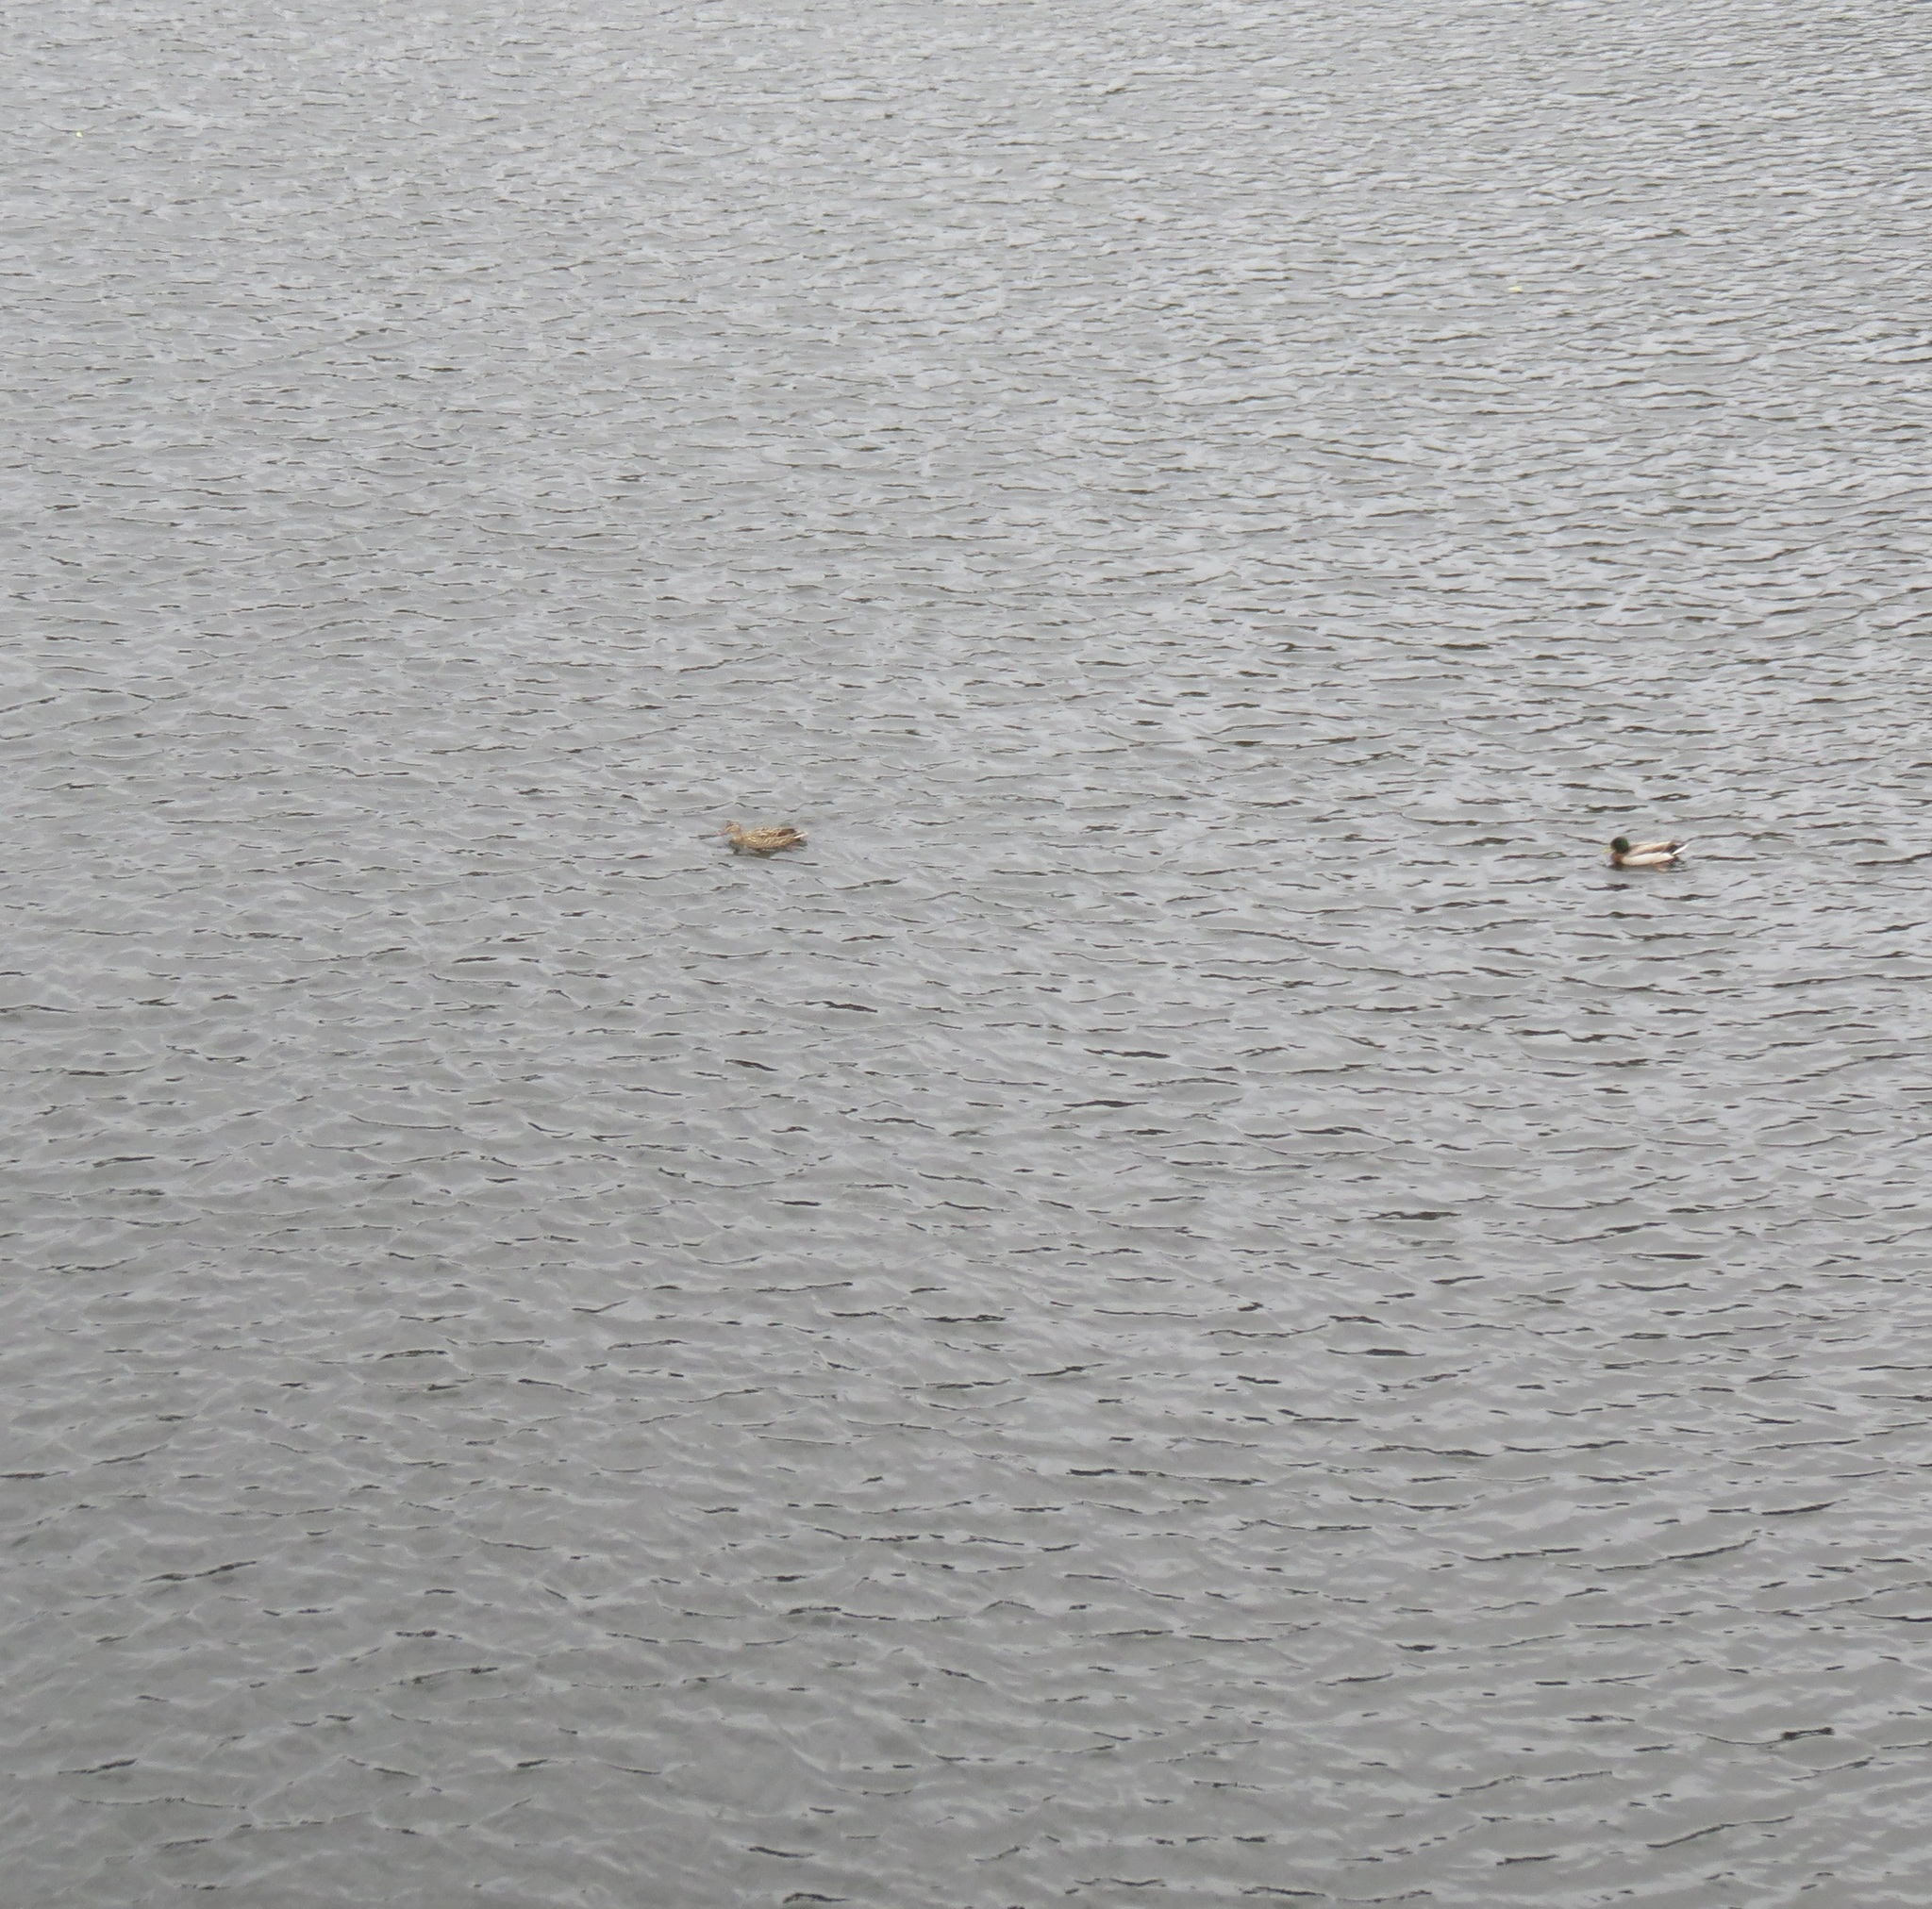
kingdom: Animalia
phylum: Chordata
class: Aves
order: Anseriformes
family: Anatidae
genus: Anas
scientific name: Anas
